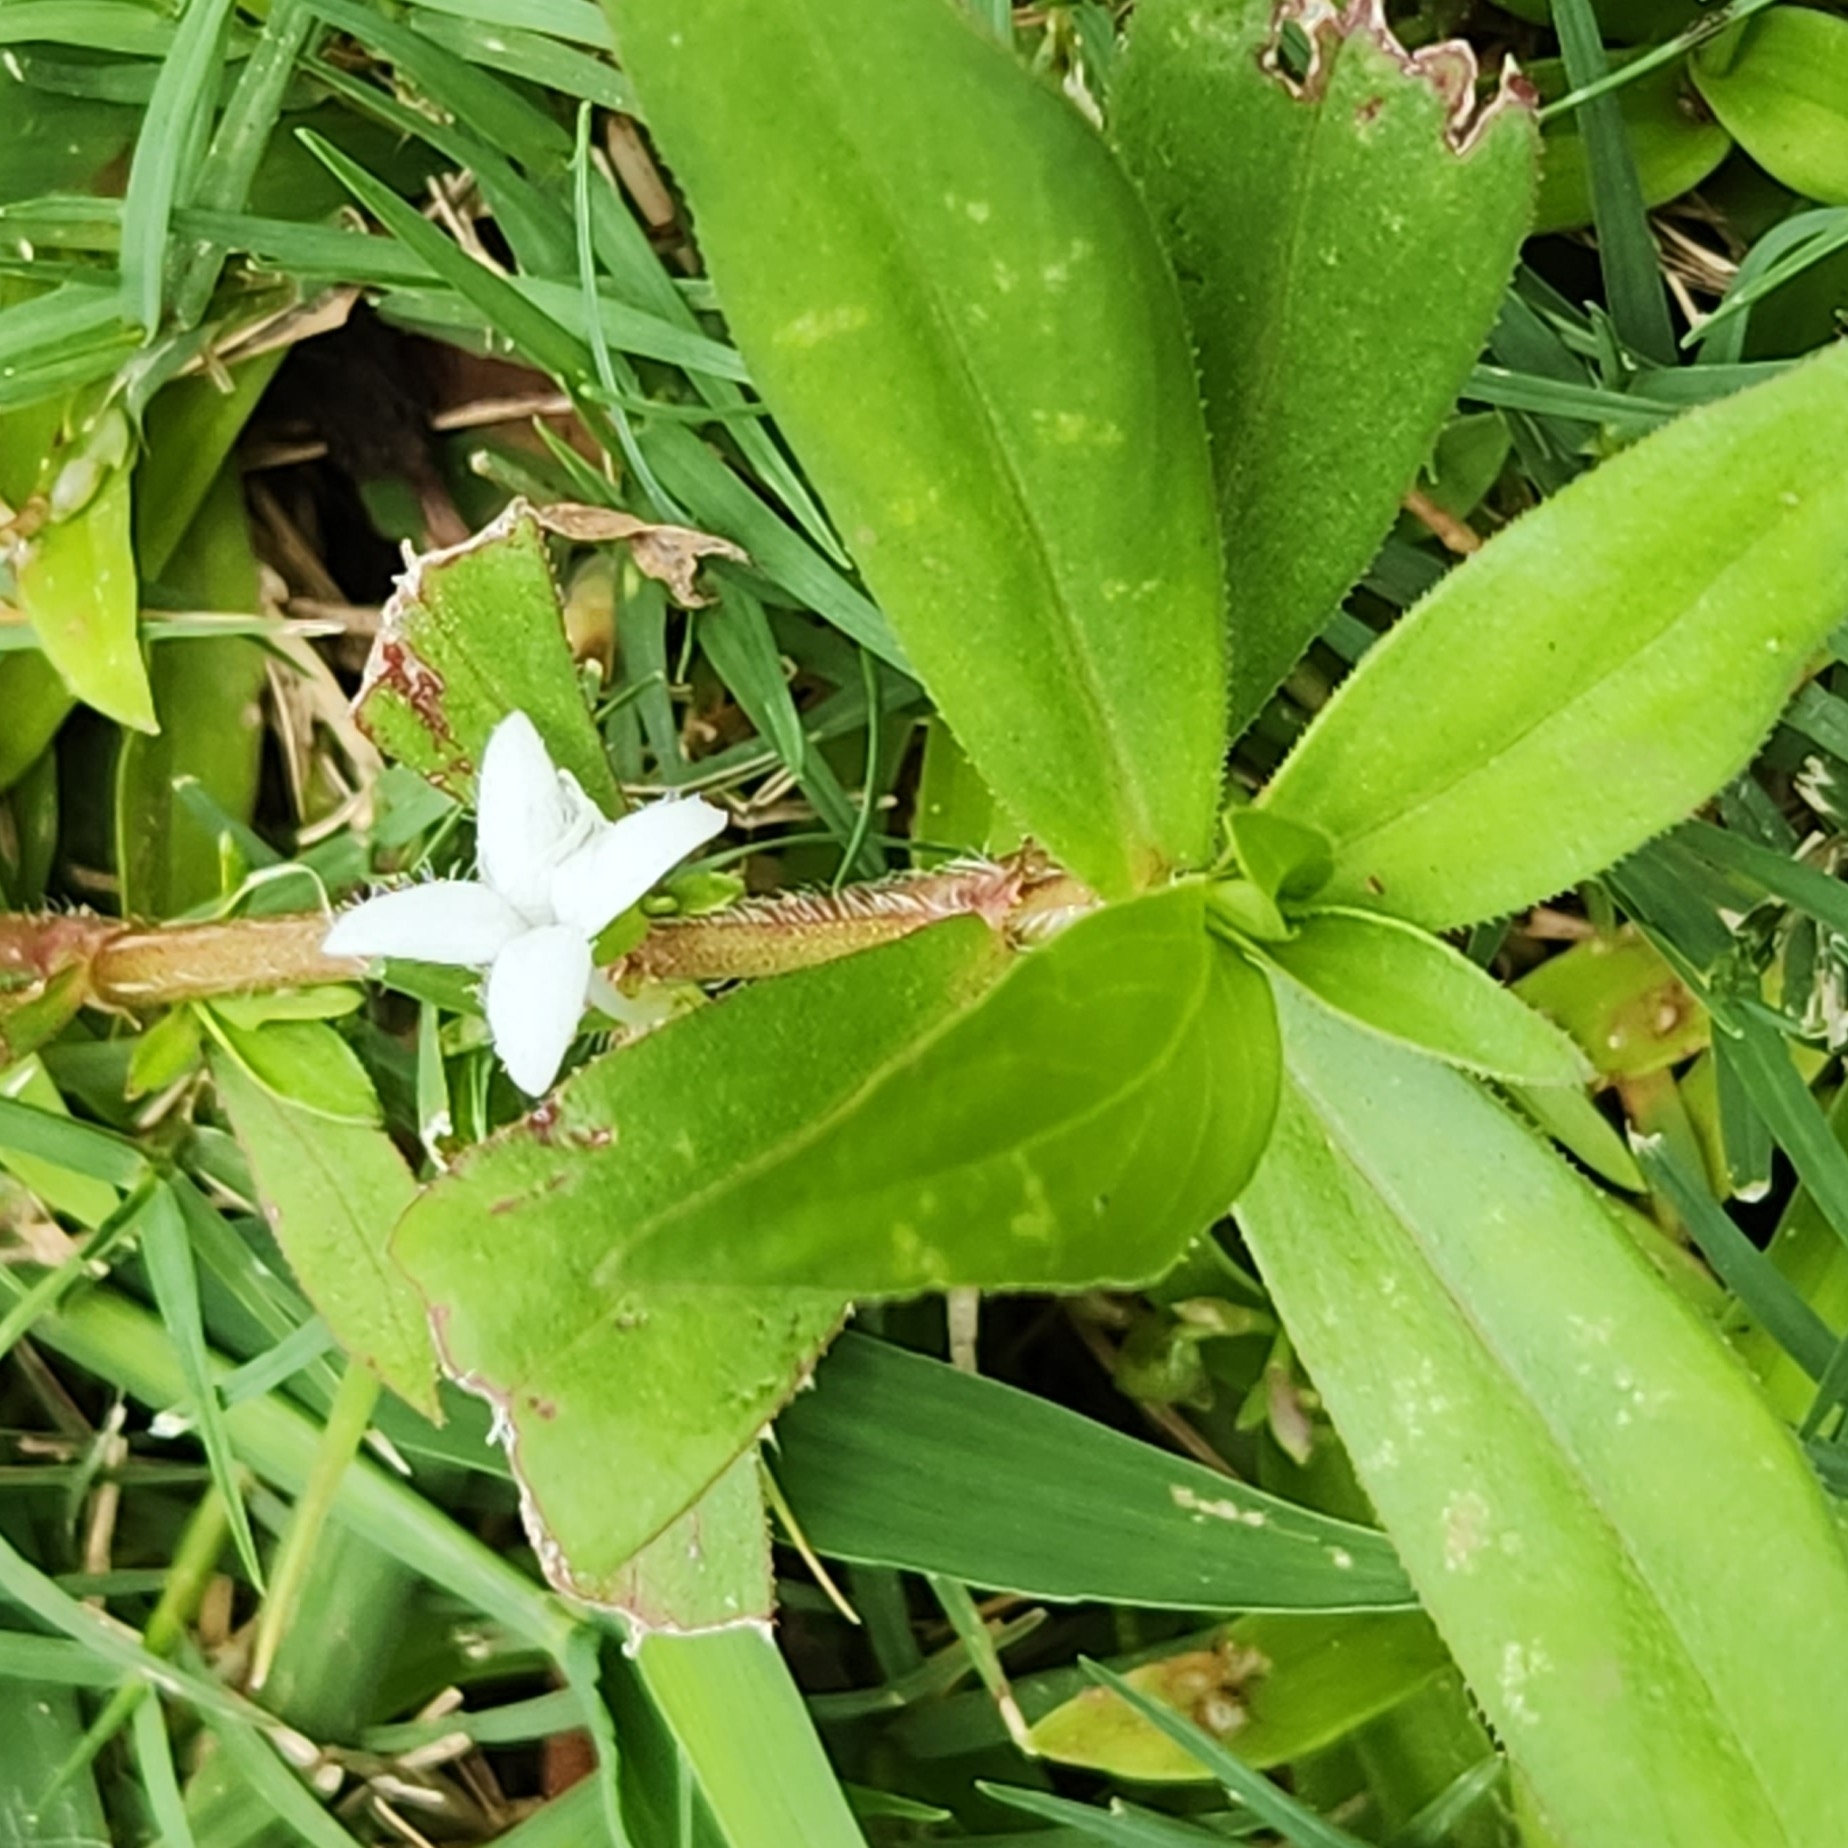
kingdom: Plantae
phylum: Tracheophyta
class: Magnoliopsida
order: Gentianales
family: Rubiaceae
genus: Diodia
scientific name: Diodia virginiana
